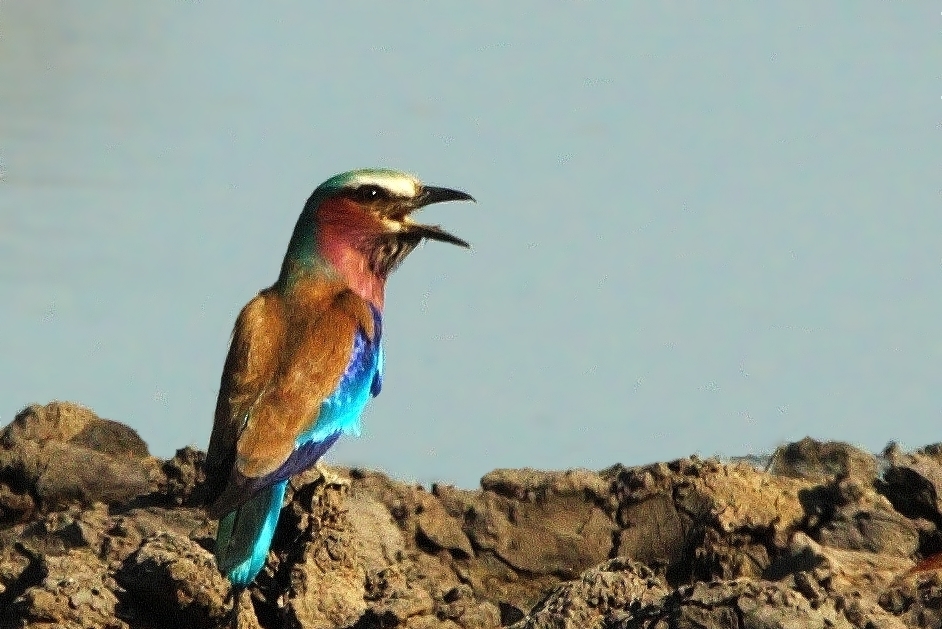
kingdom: Animalia
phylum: Chordata
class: Aves
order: Coraciiformes
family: Coraciidae
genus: Coracias
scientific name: Coracias caudatus
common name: Lilac-breasted roller
